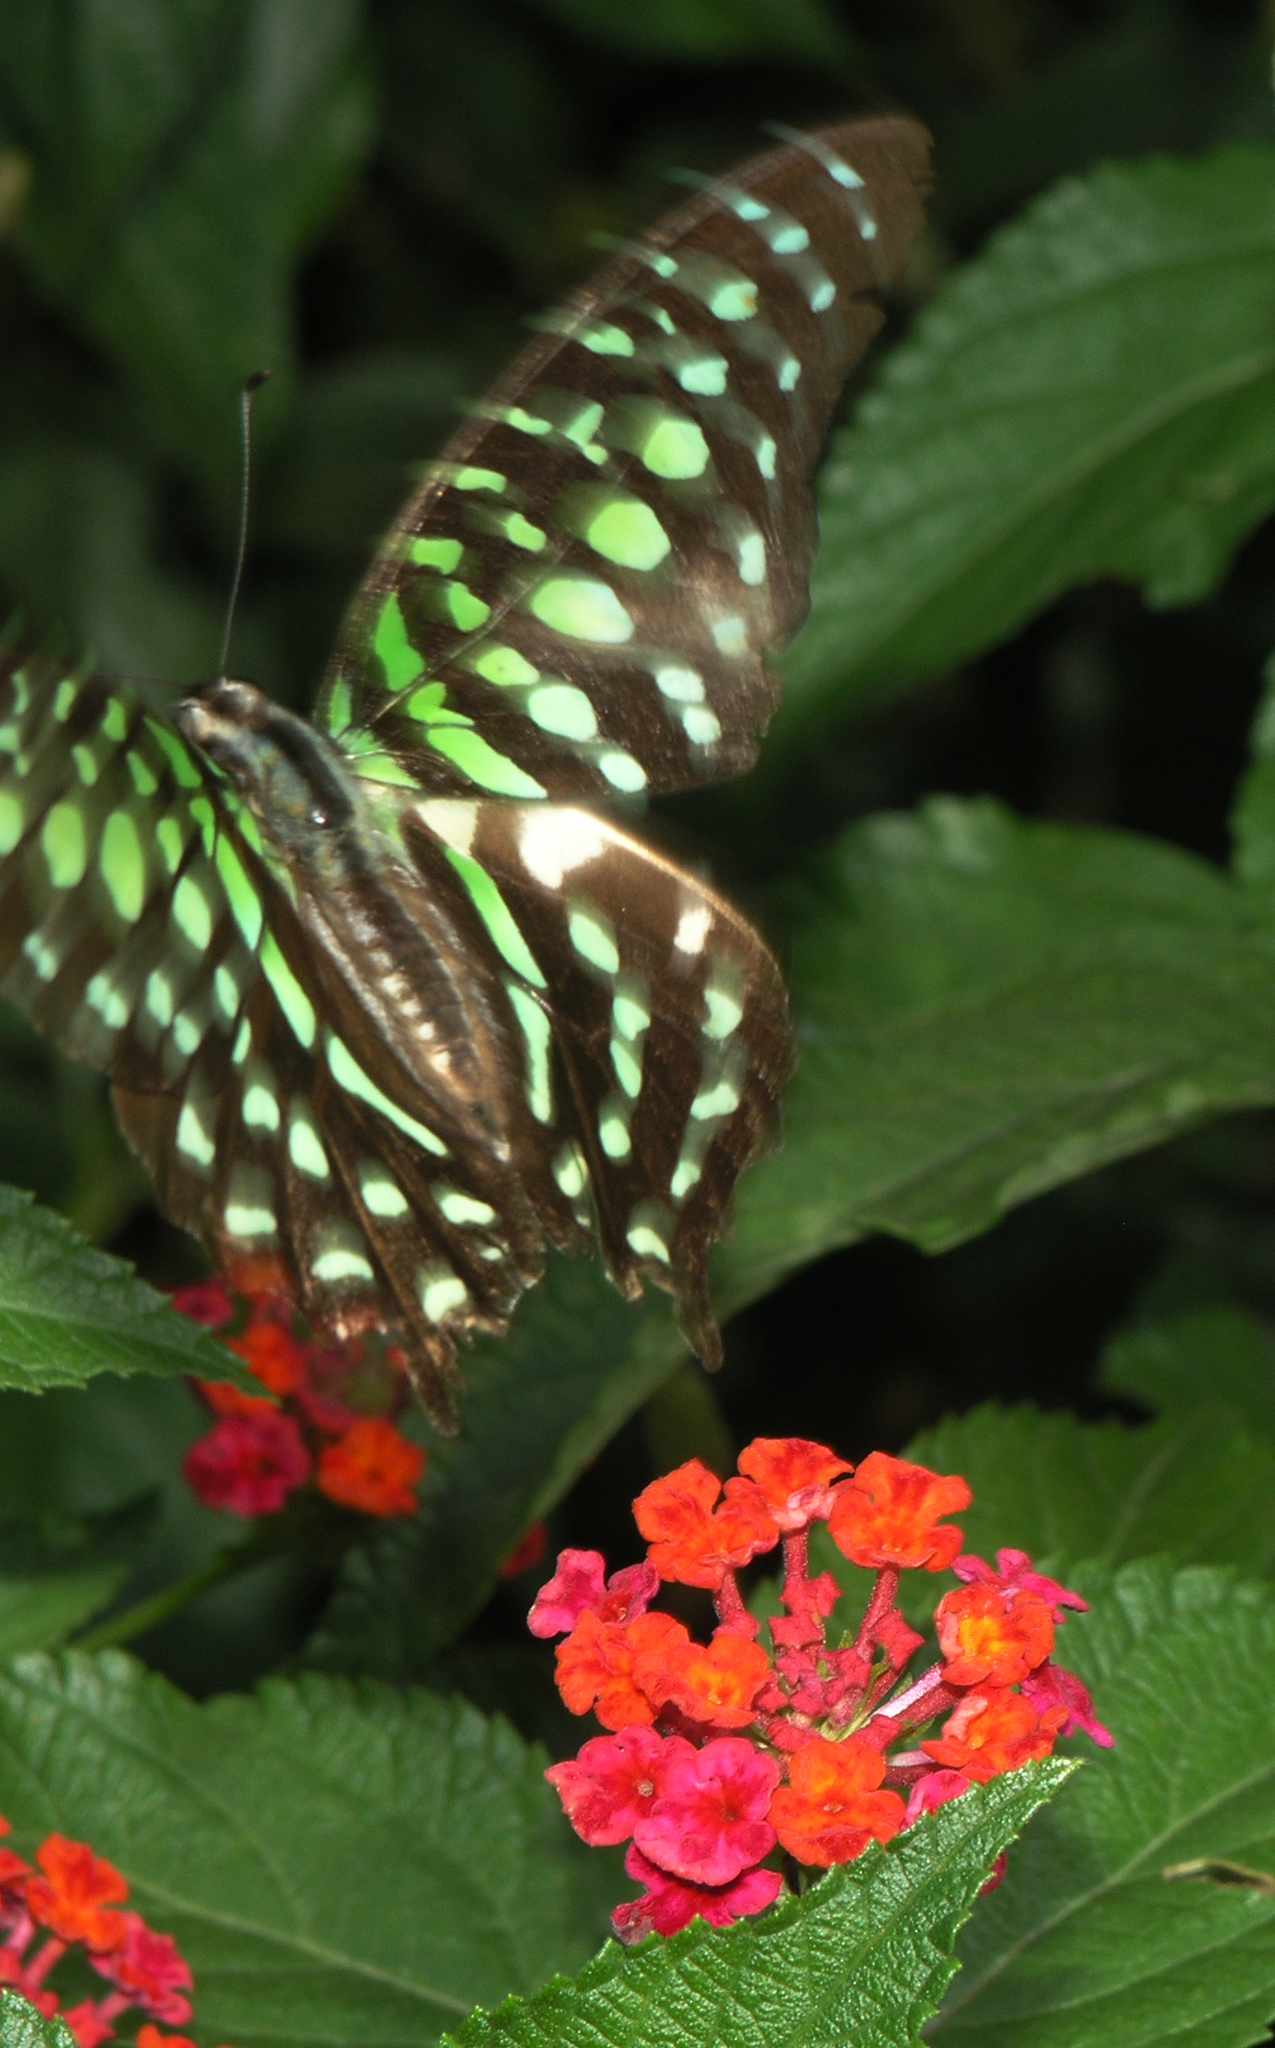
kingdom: Animalia
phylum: Arthropoda
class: Insecta
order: Lepidoptera
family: Papilionidae
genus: Graphium
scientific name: Graphium agamemnon
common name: Tailed jay
